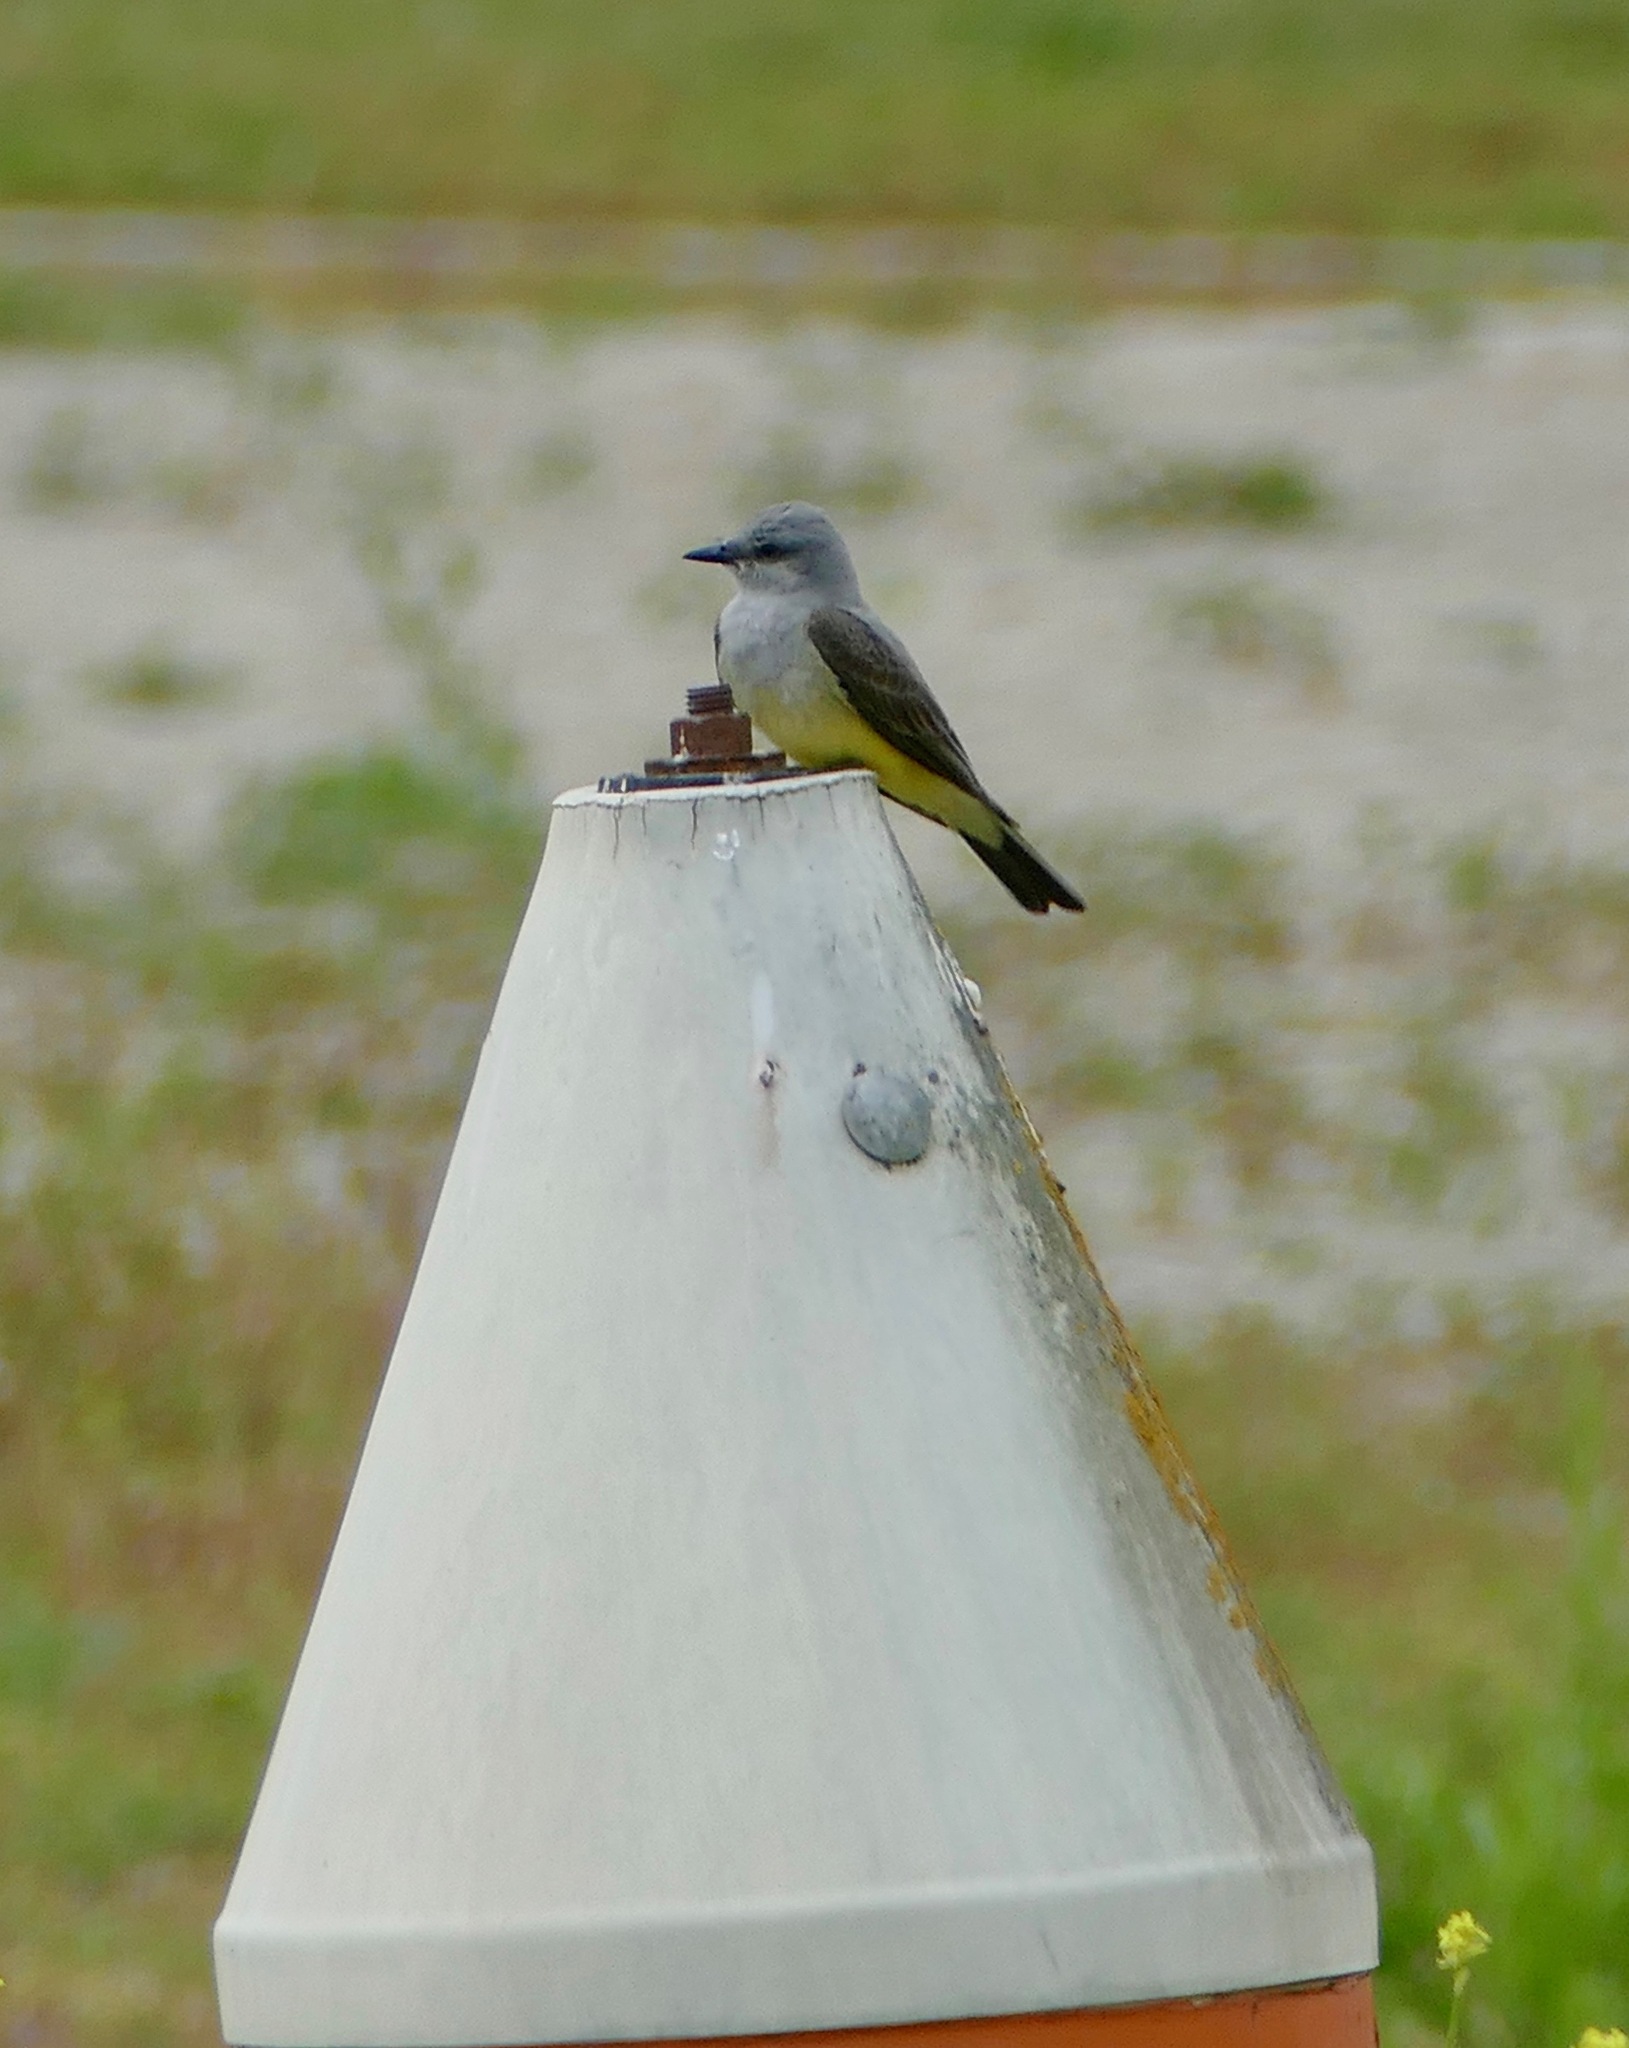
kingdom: Animalia
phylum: Chordata
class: Aves
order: Passeriformes
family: Tyrannidae
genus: Tyrannus
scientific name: Tyrannus verticalis
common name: Western kingbird
